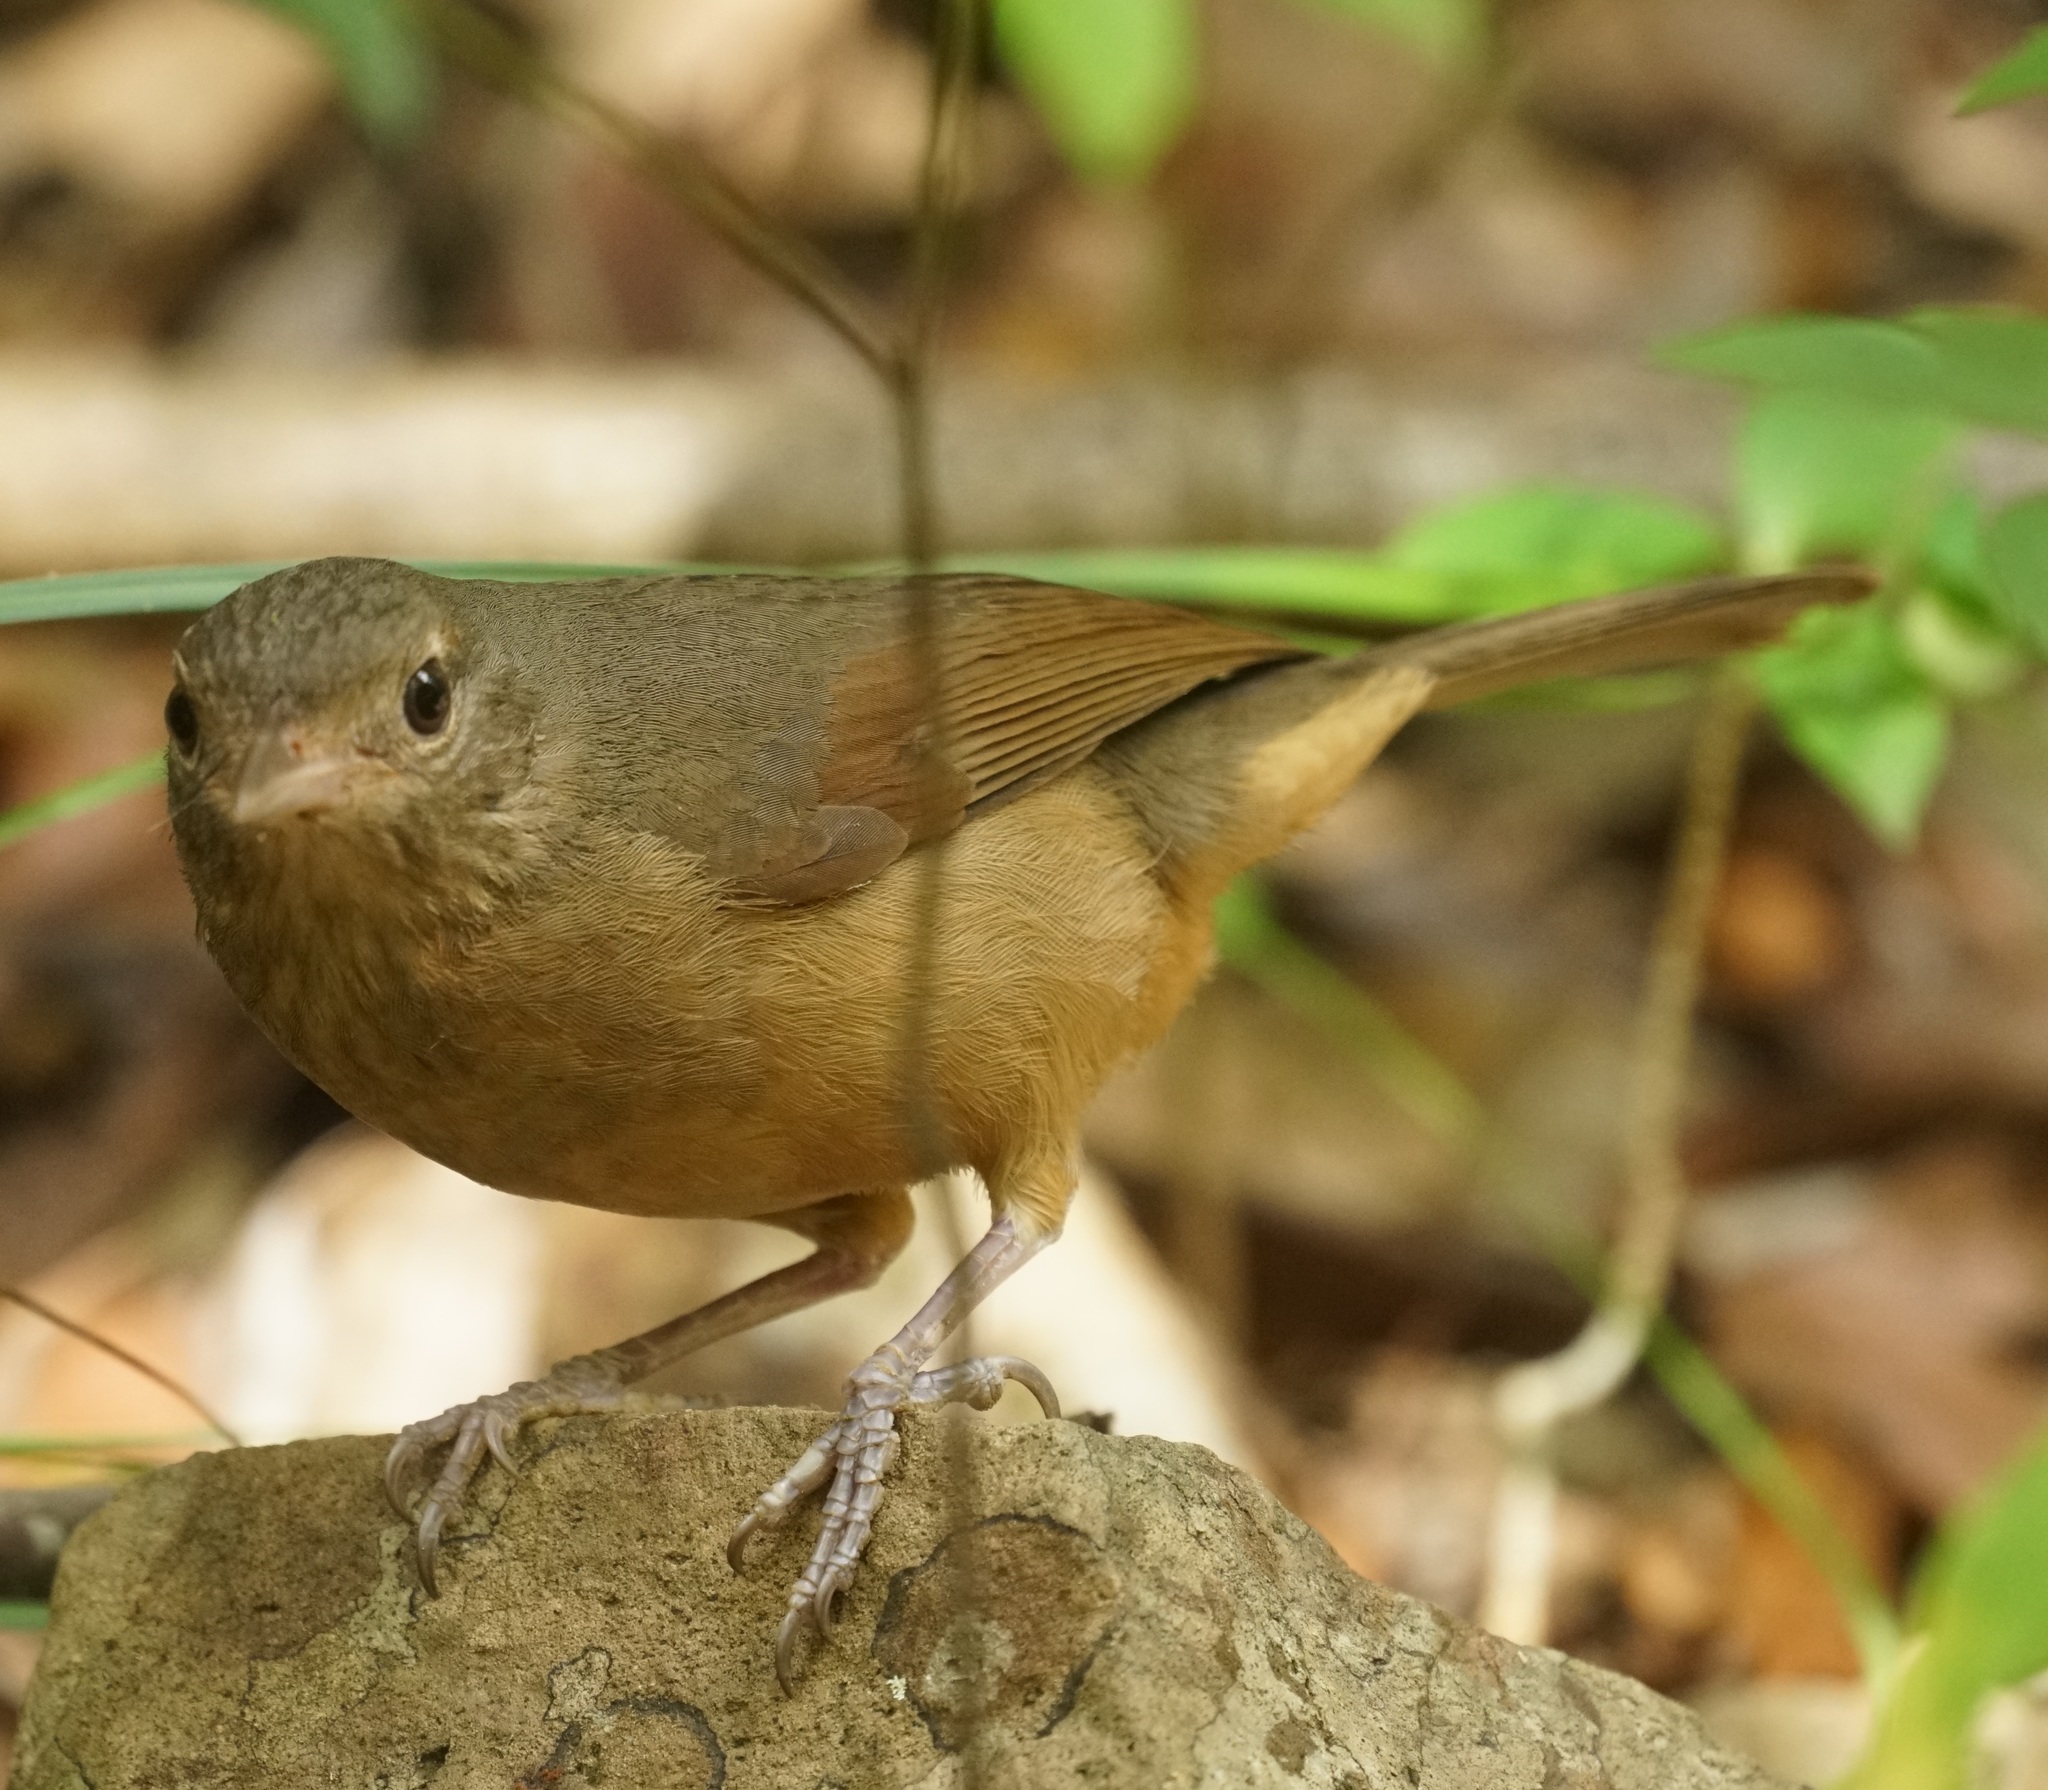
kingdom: Animalia
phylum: Chordata
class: Aves
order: Passeriformes
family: Pachycephalidae
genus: Colluricincla
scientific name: Colluricincla rufogaster
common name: Rufous shrikethrush
